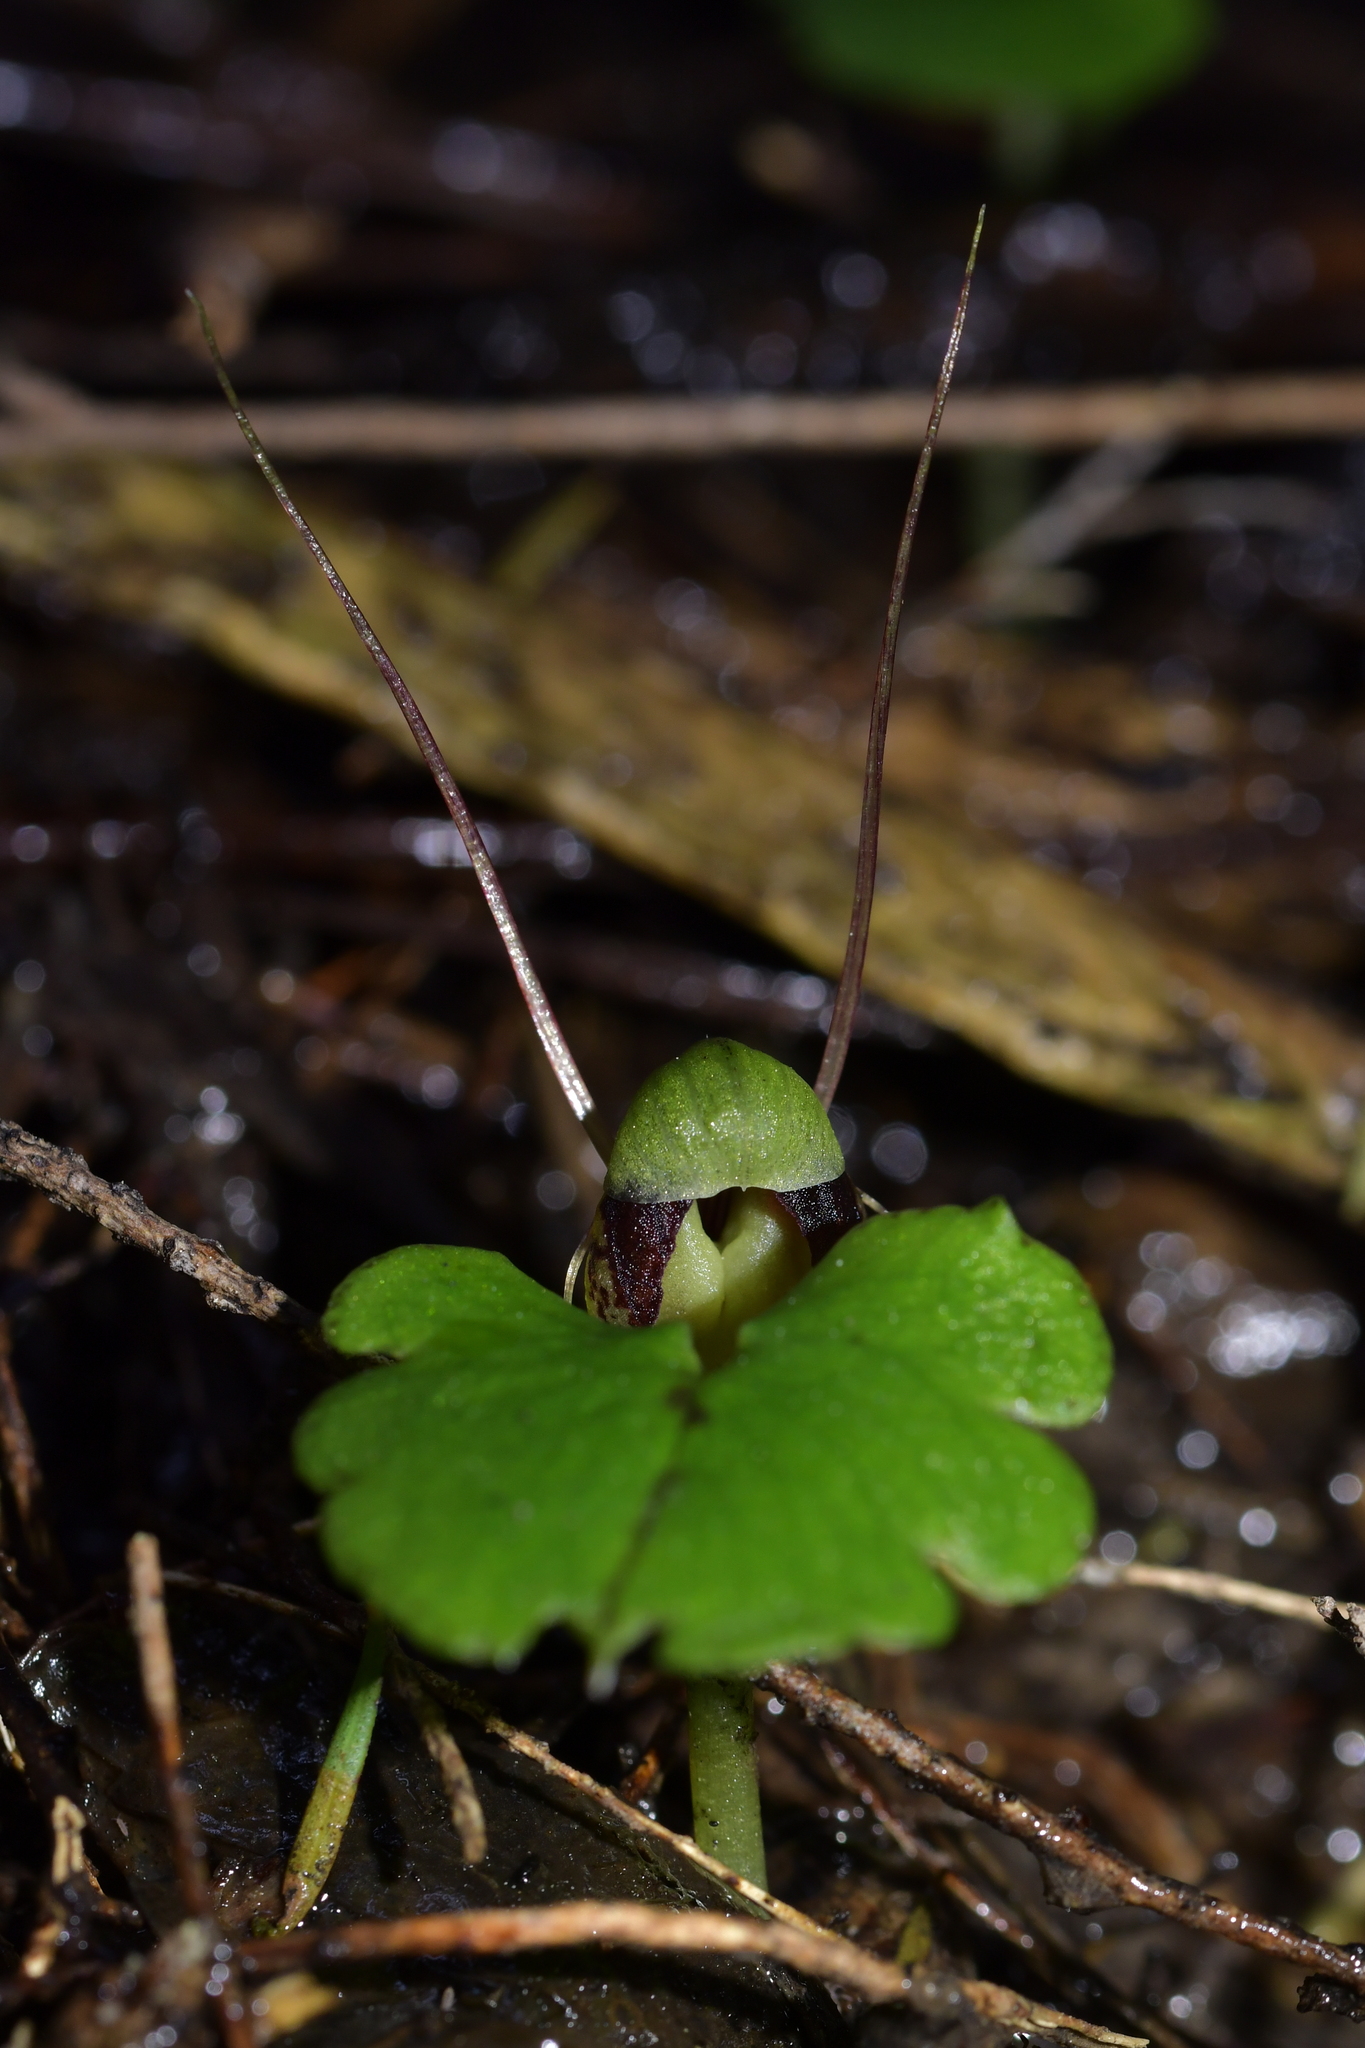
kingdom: Plantae
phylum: Tracheophyta
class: Liliopsida
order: Asparagales
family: Orchidaceae
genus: Corybas
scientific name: Corybas vitreus
